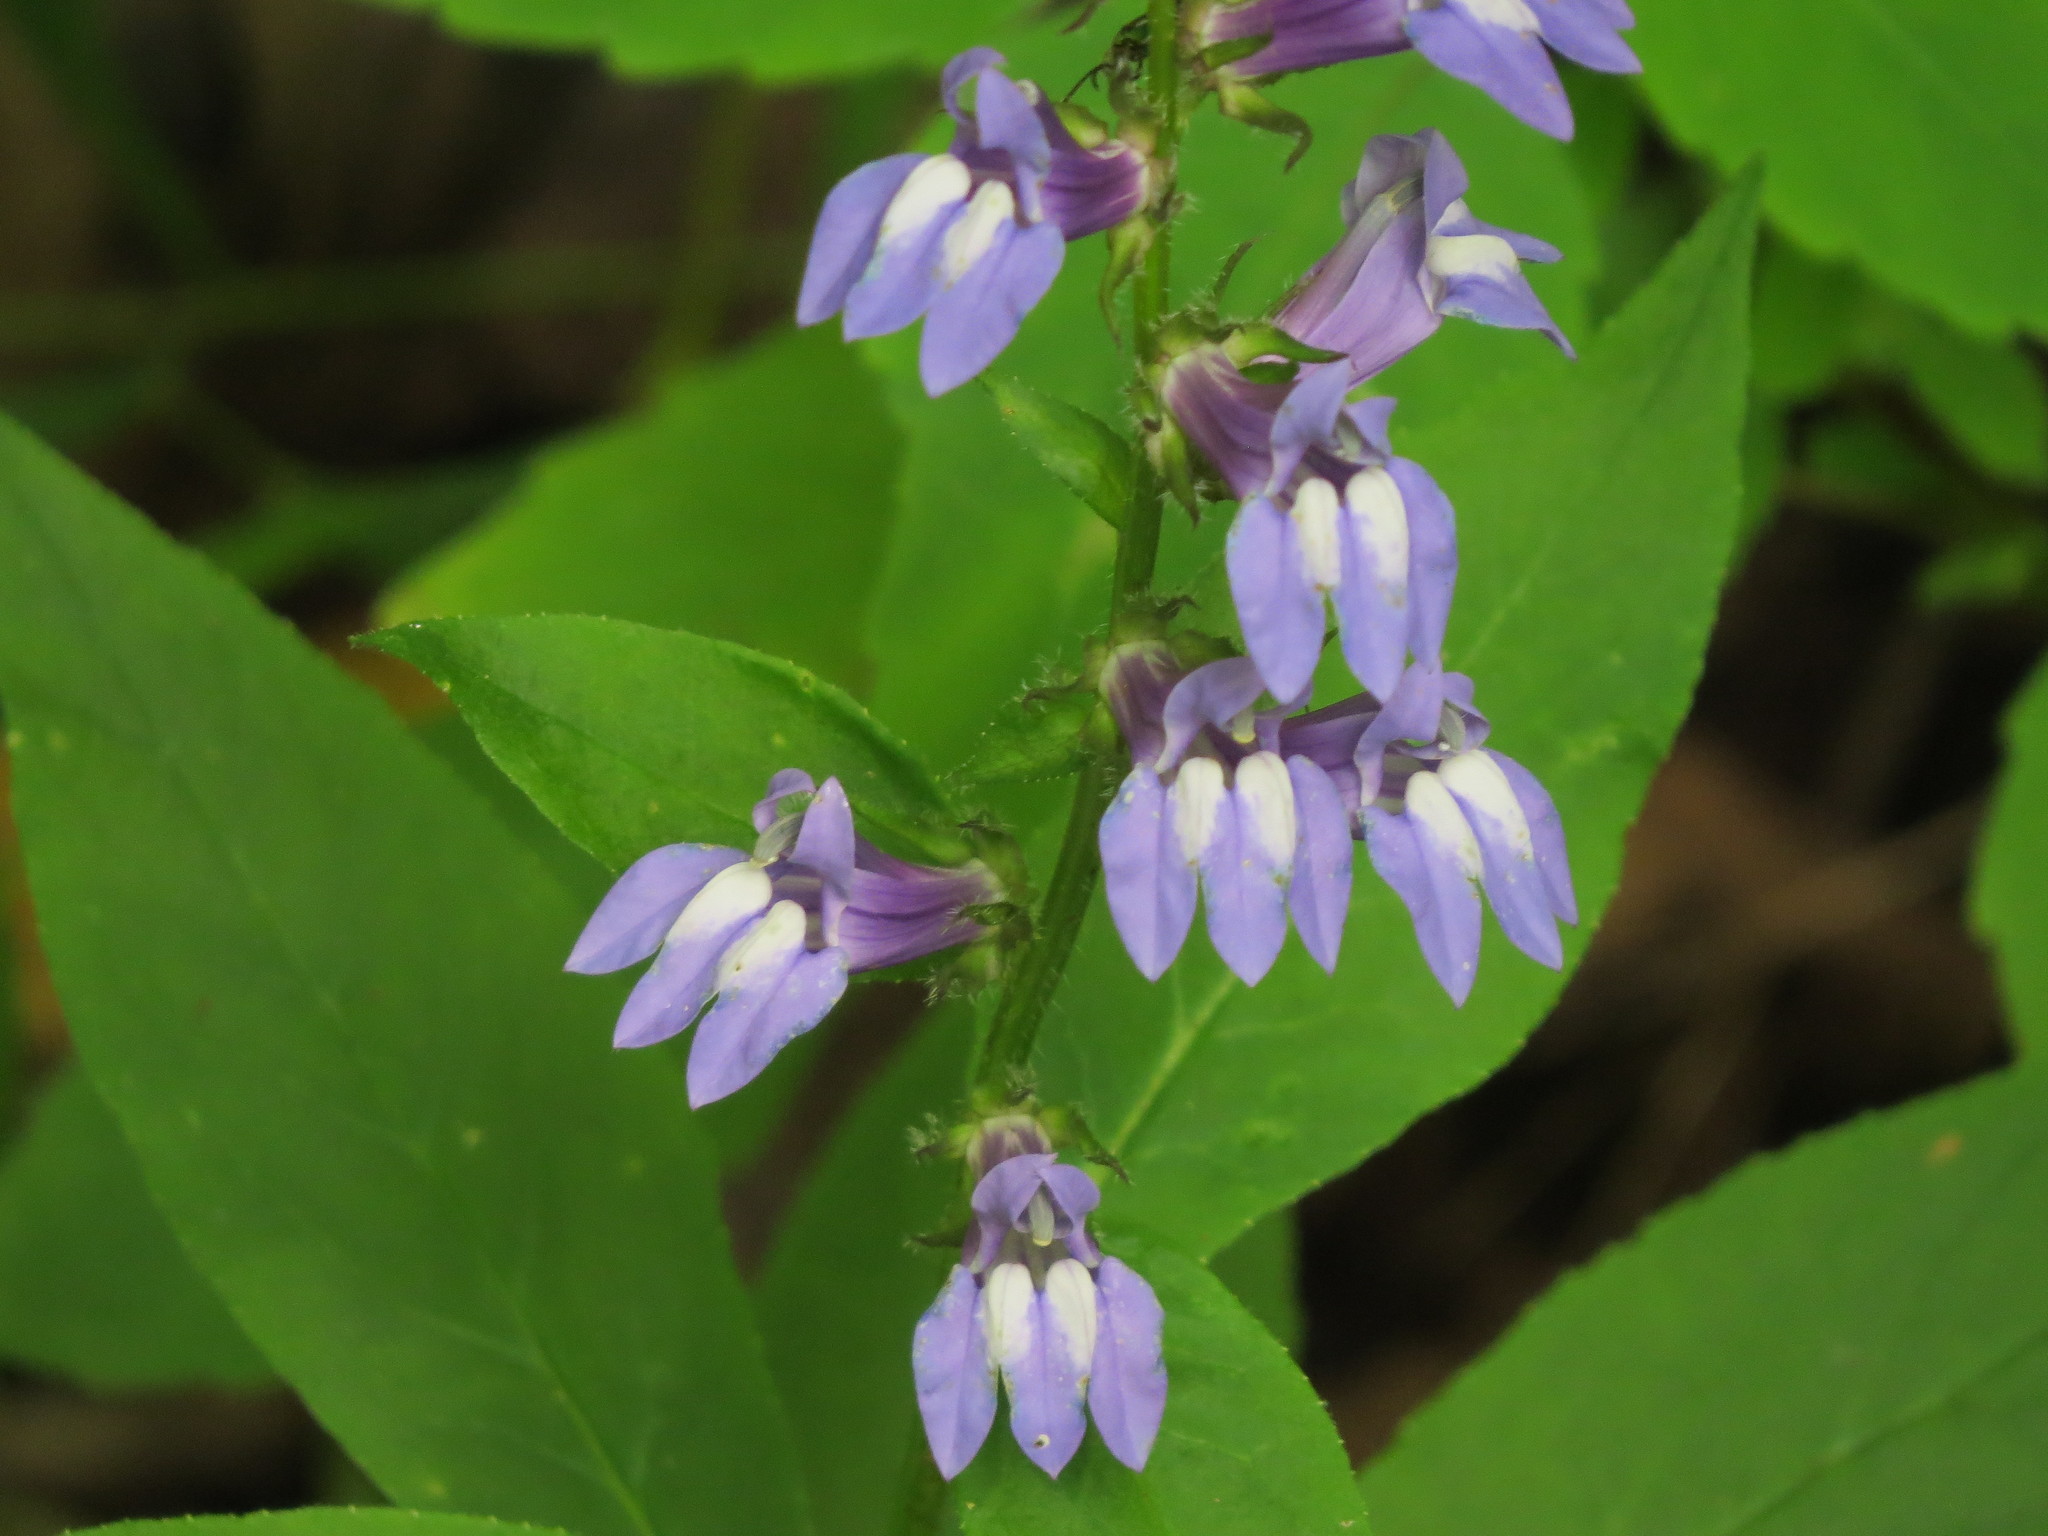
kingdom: Plantae
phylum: Tracheophyta
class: Magnoliopsida
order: Asterales
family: Campanulaceae
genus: Lobelia
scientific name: Lobelia siphilitica
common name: Great lobelia
